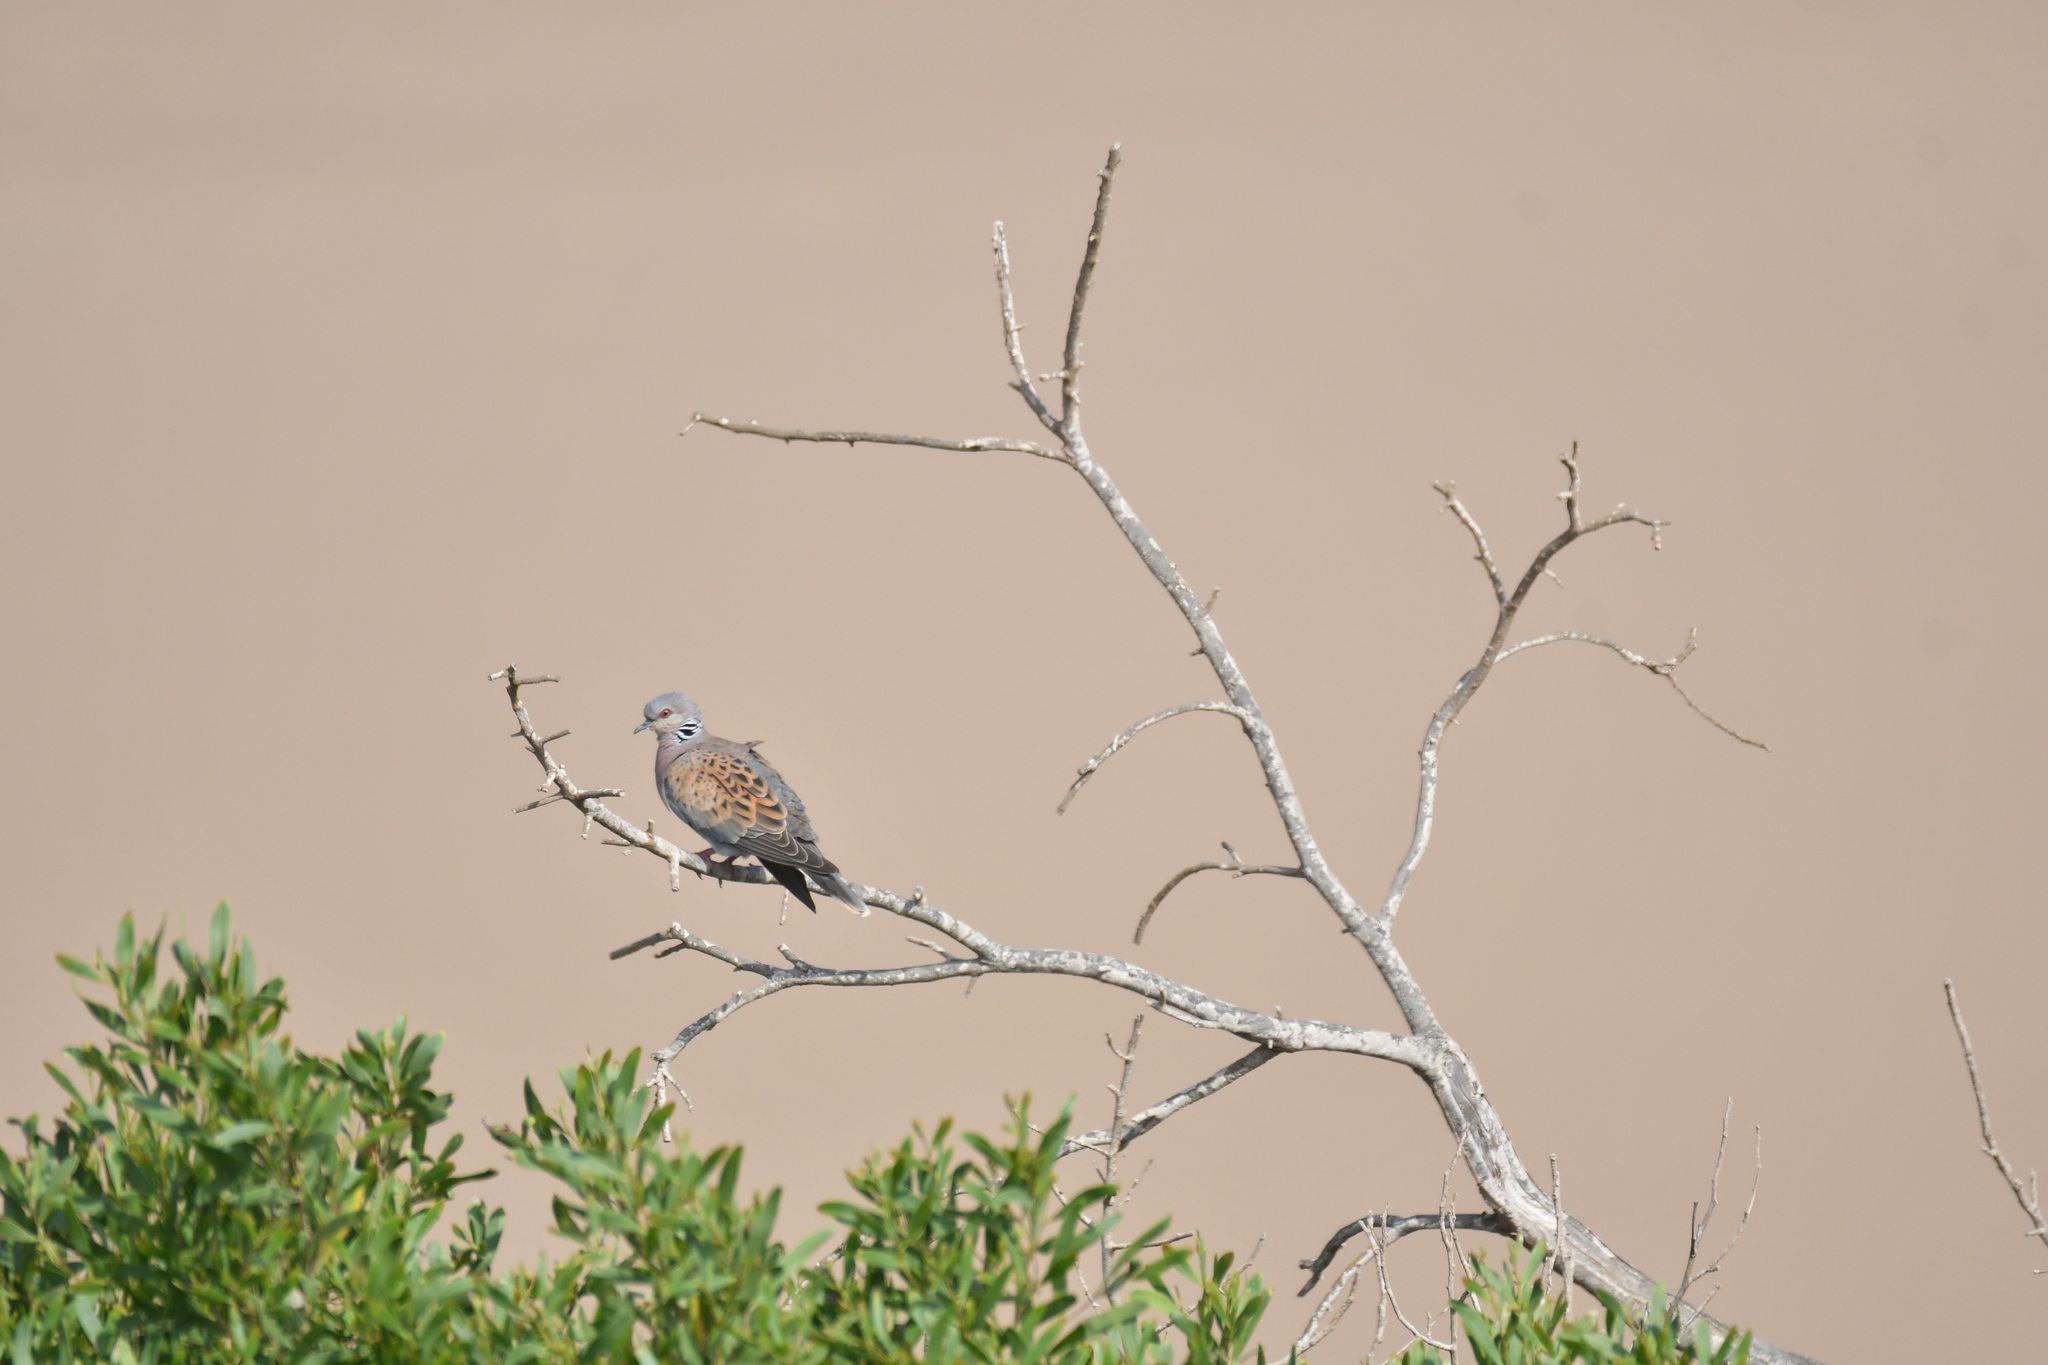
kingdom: Animalia
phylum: Chordata
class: Aves
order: Columbiformes
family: Columbidae
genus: Streptopelia
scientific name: Streptopelia turtur
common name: European turtle dove
